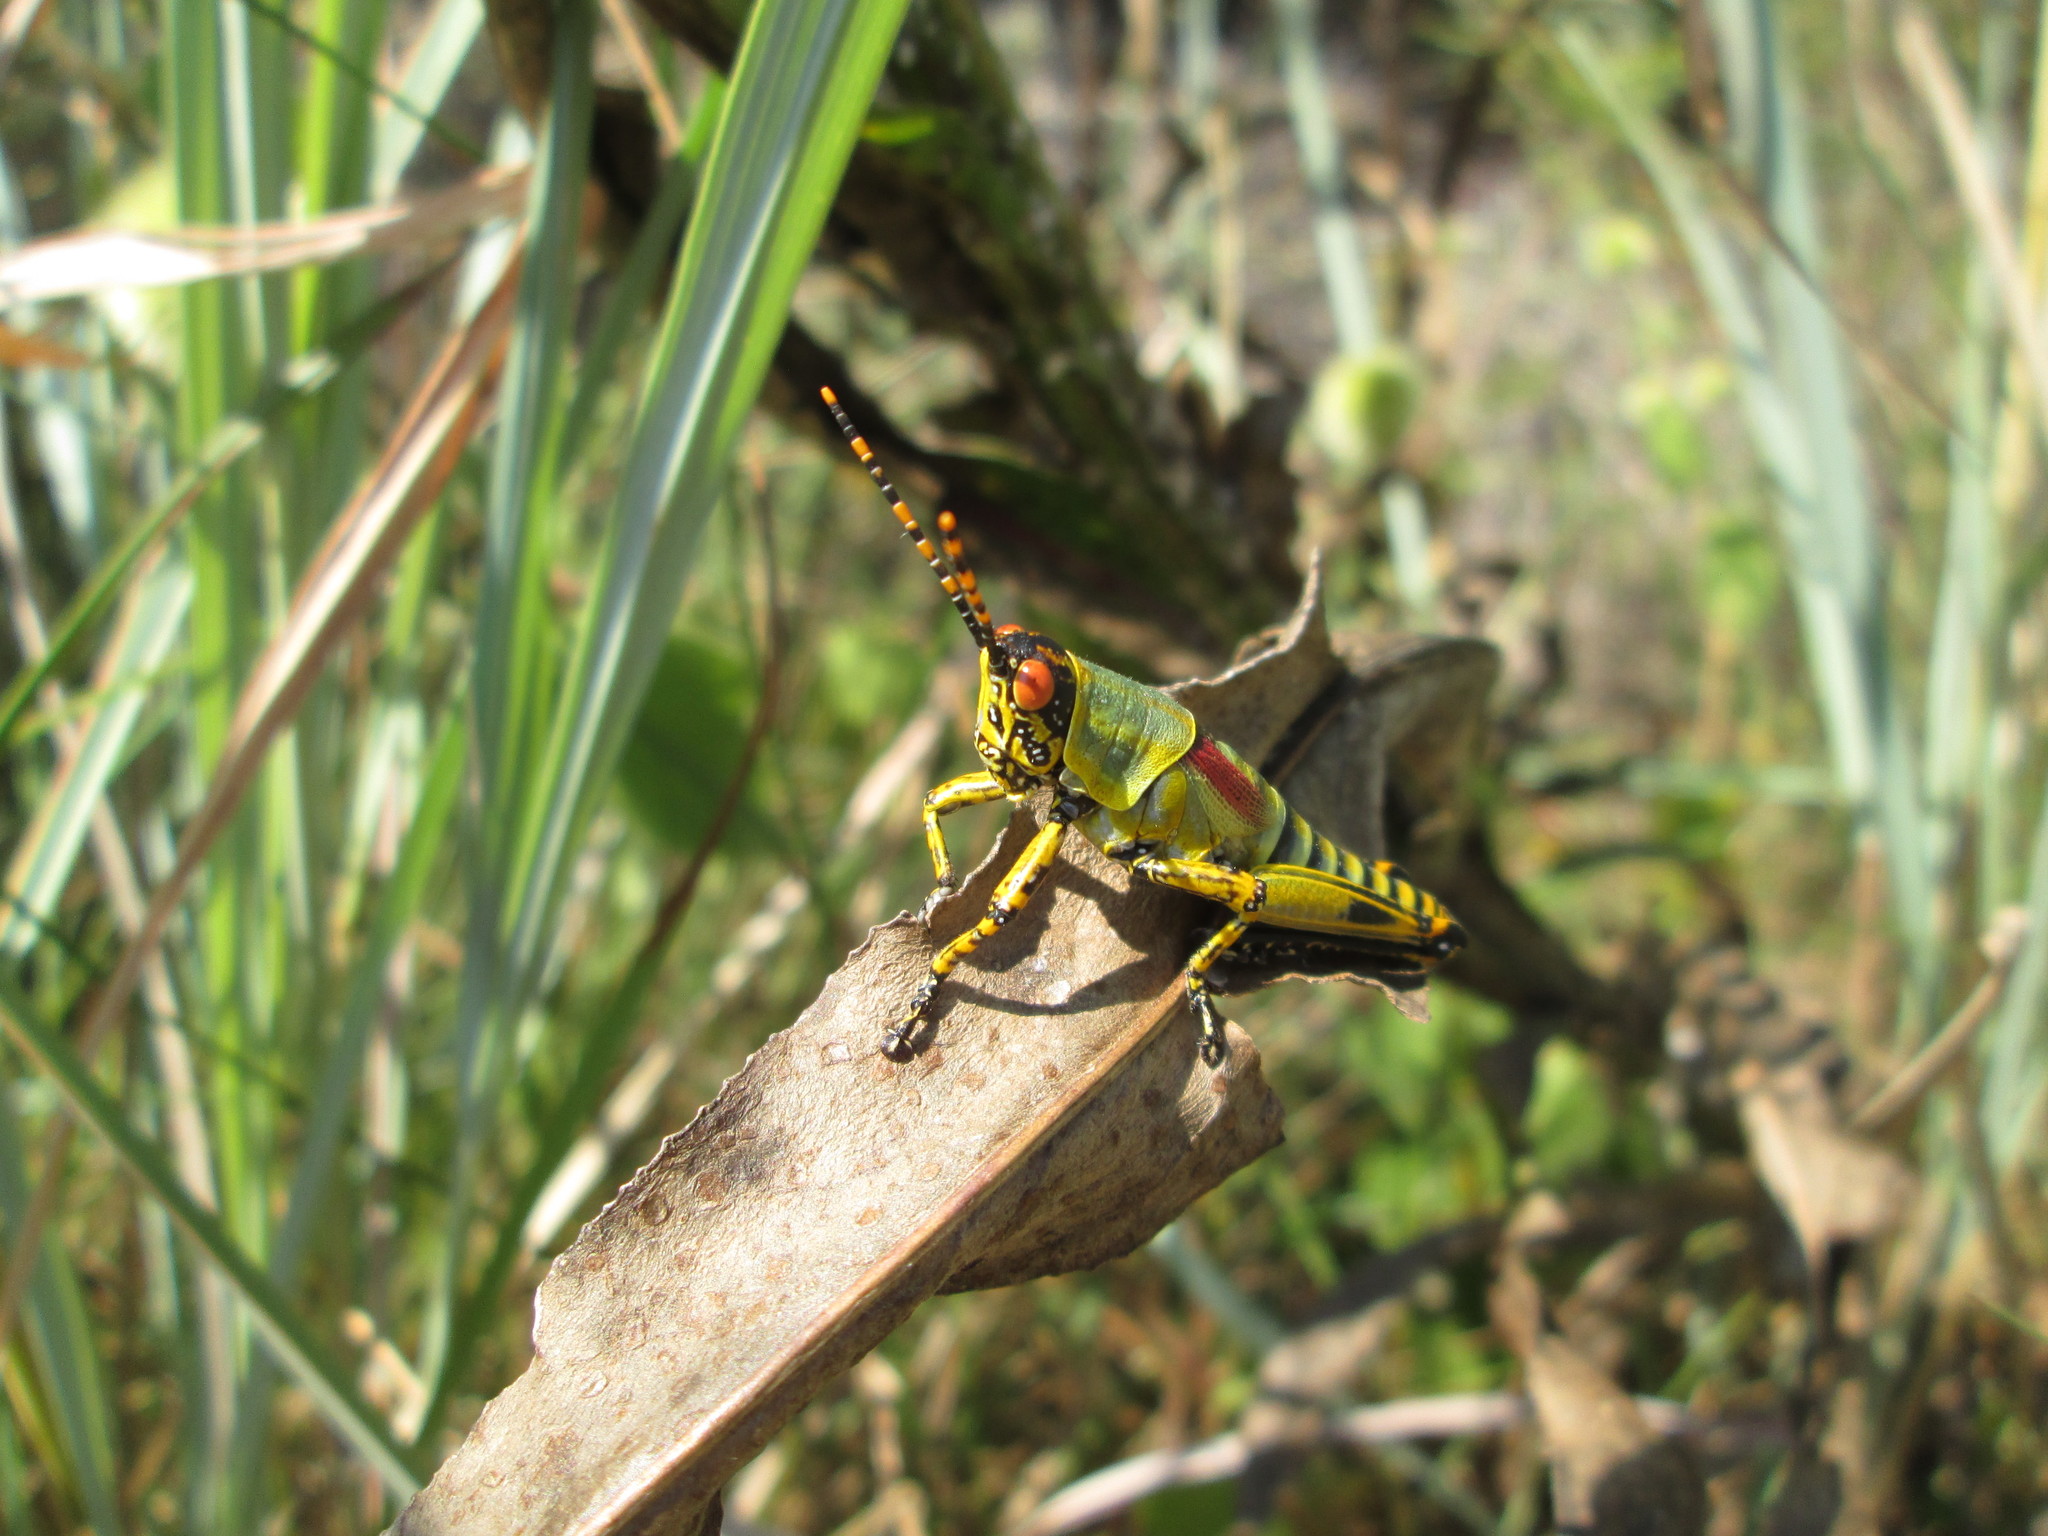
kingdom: Animalia
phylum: Arthropoda
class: Insecta
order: Orthoptera
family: Pyrgomorphidae
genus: Zonocerus
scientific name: Zonocerus elegans
